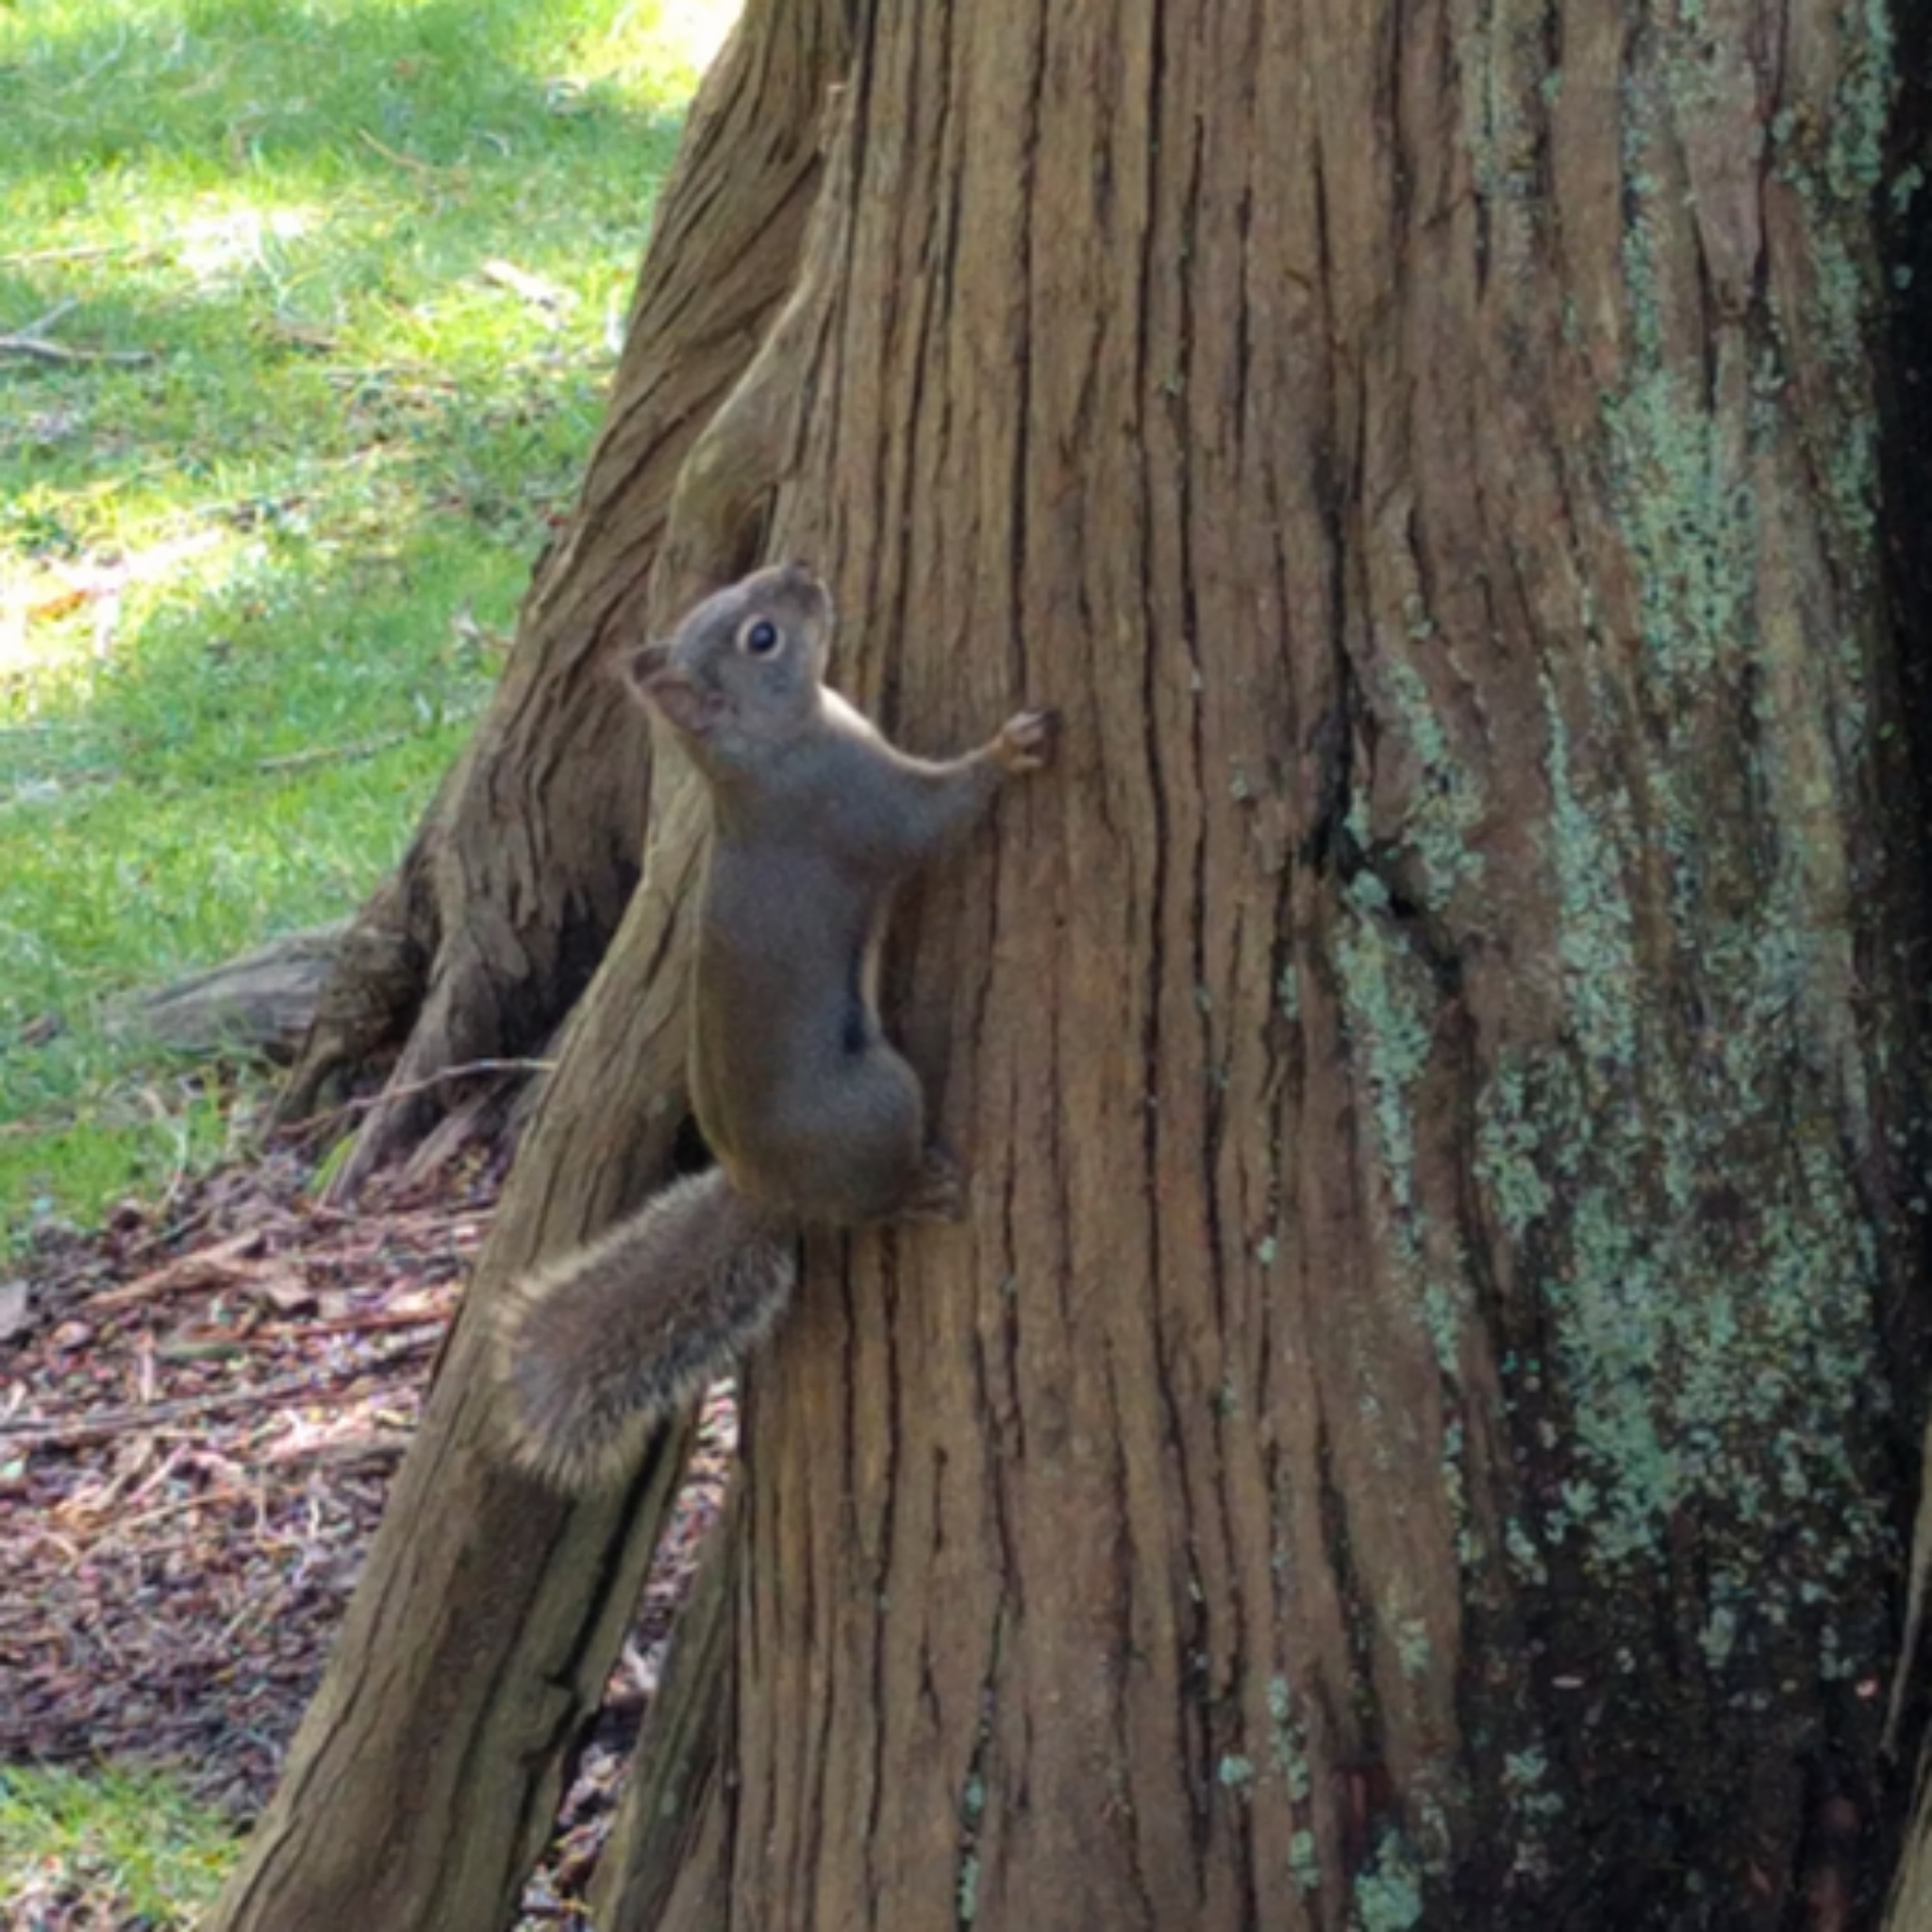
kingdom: Animalia
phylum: Chordata
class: Mammalia
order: Rodentia
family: Sciuridae
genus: Tamiasciurus
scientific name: Tamiasciurus douglasii
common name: Douglas's squirrel
